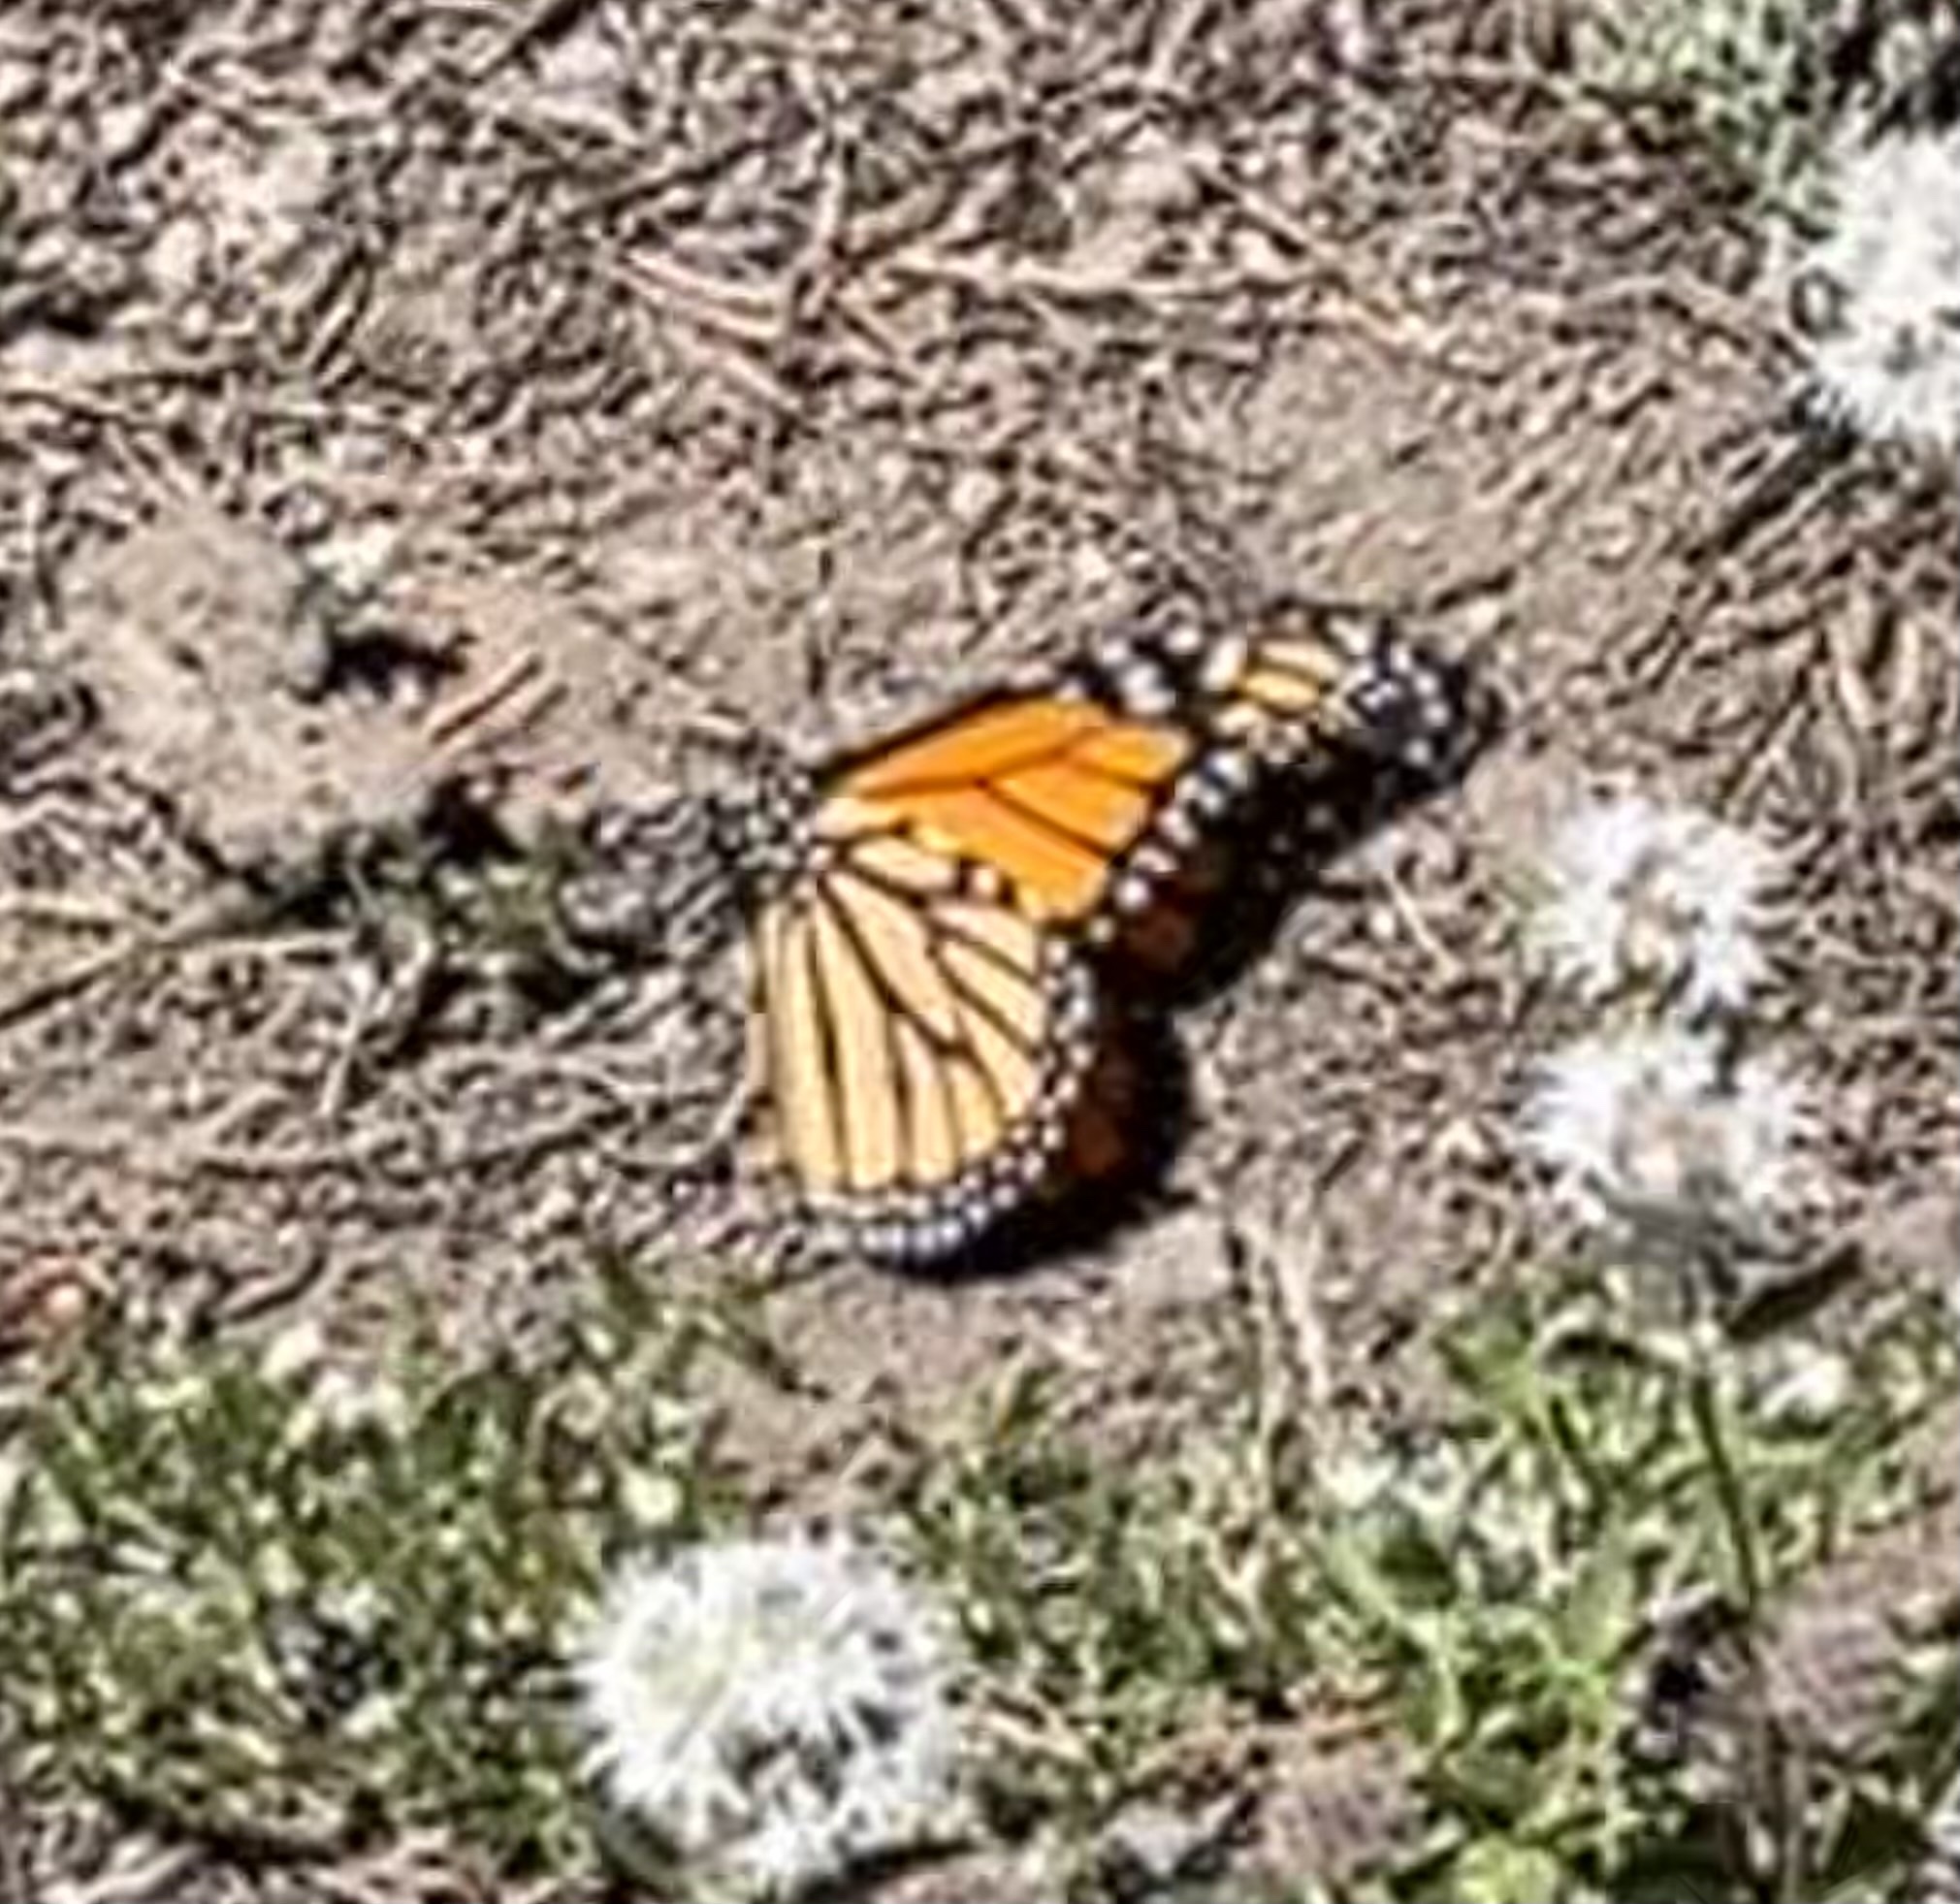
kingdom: Animalia
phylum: Arthropoda
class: Insecta
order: Lepidoptera
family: Nymphalidae
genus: Danaus
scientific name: Danaus plexippus
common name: Monarch
